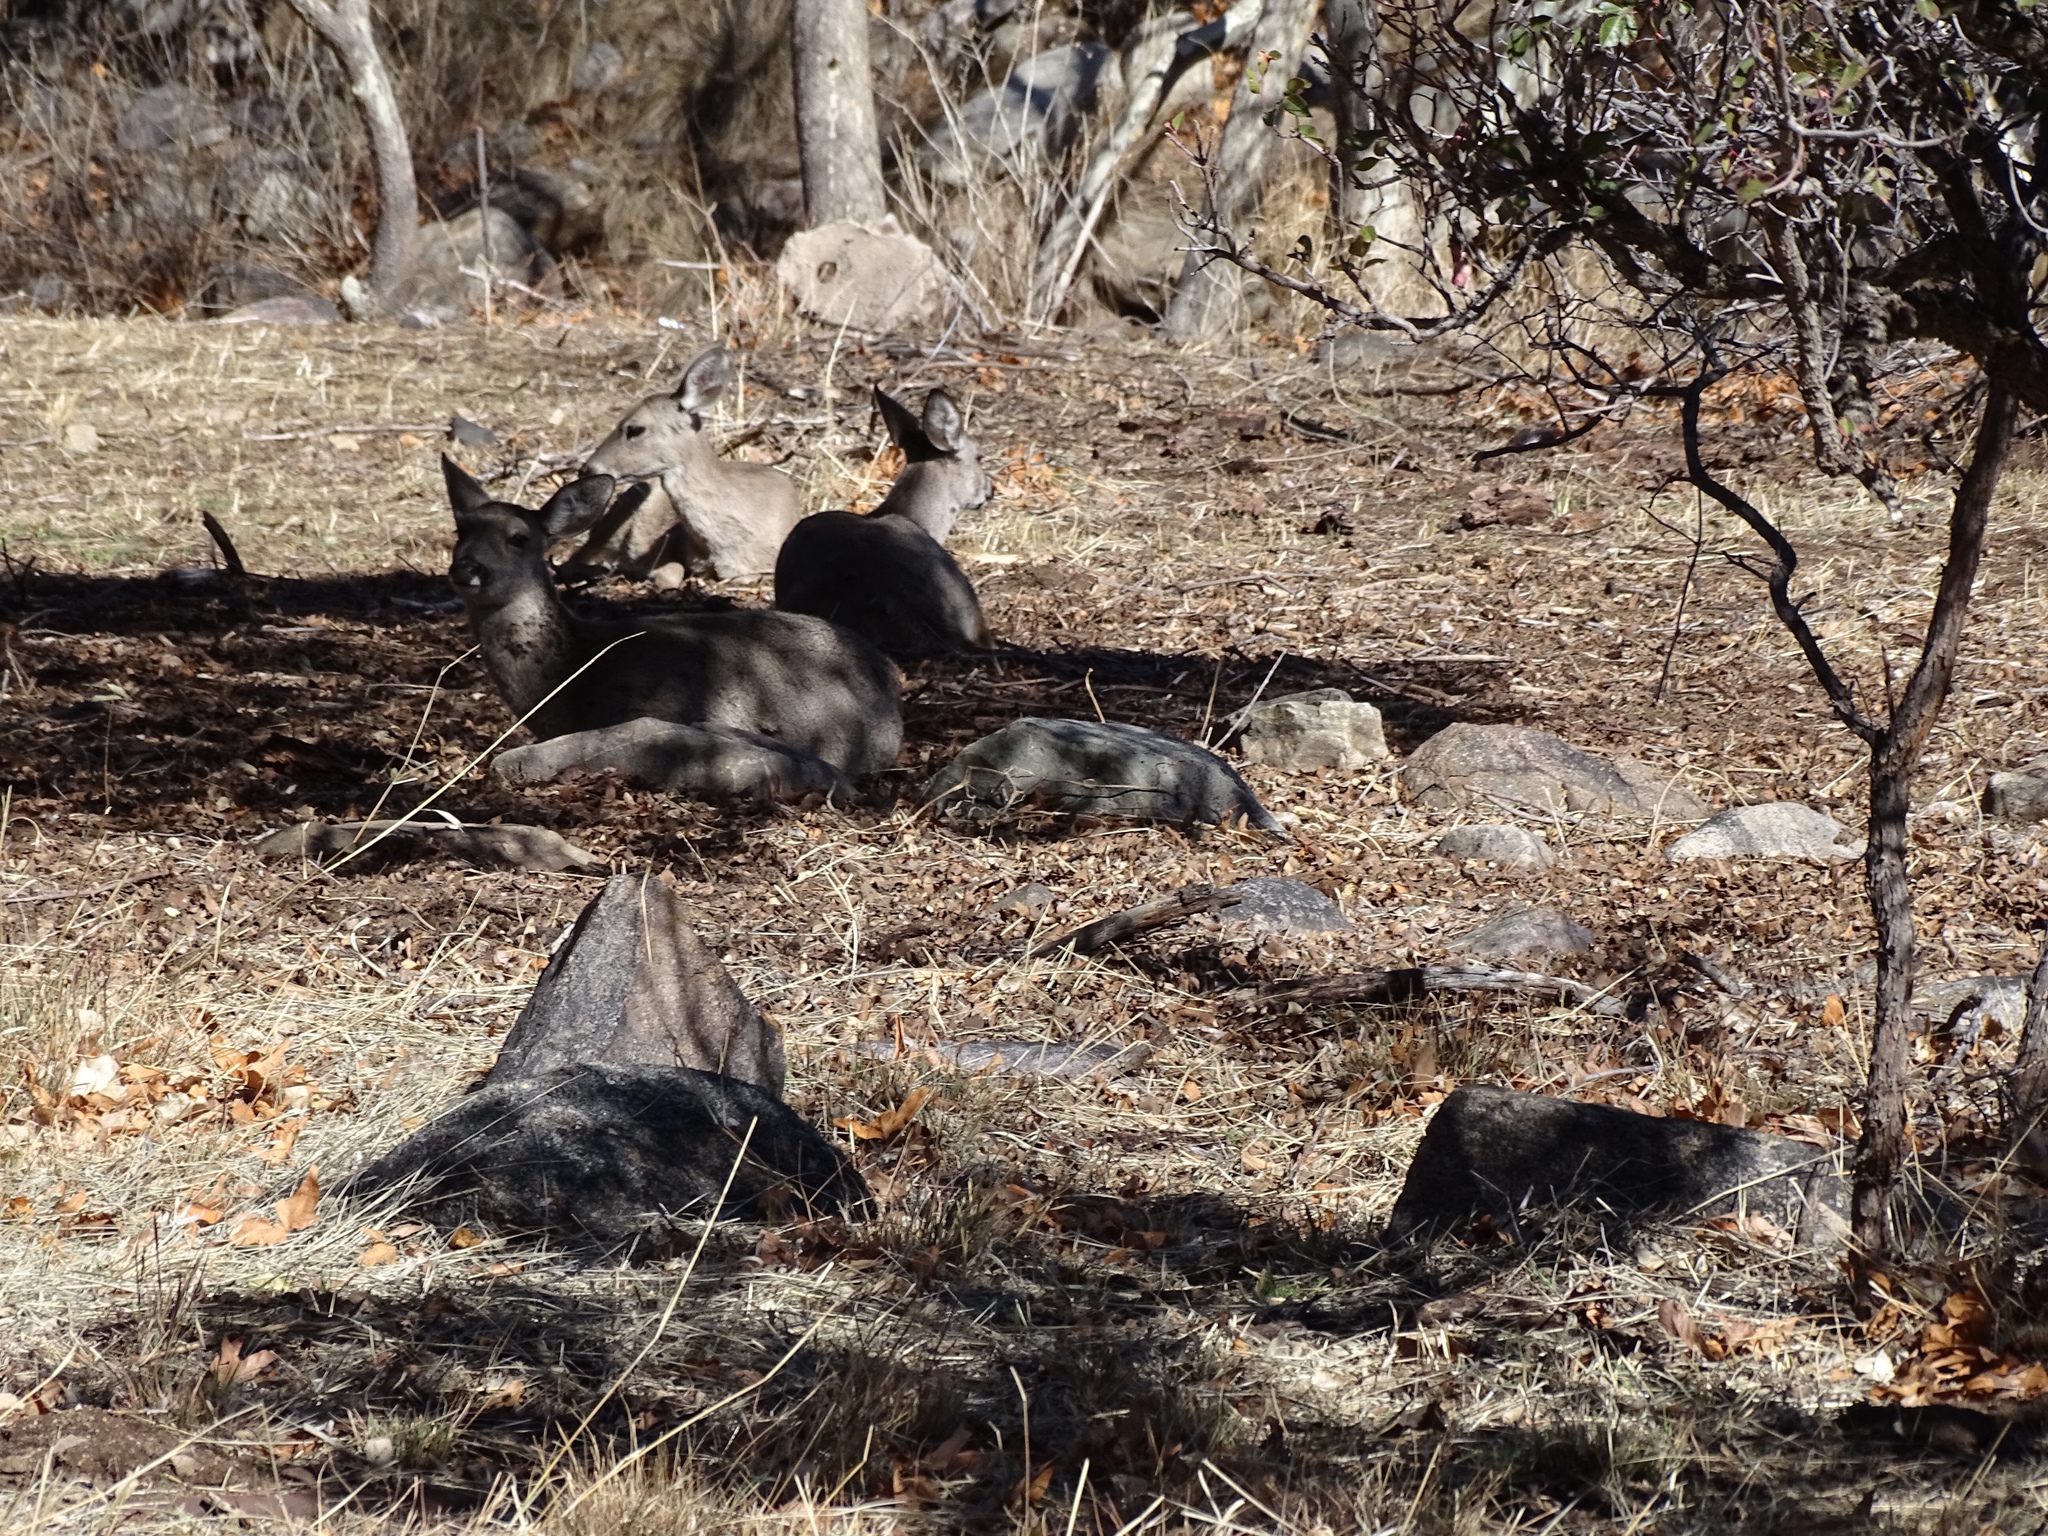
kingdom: Animalia
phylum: Chordata
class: Mammalia
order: Artiodactyla
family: Cervidae
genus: Odocoileus
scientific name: Odocoileus virginianus
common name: White-tailed deer
